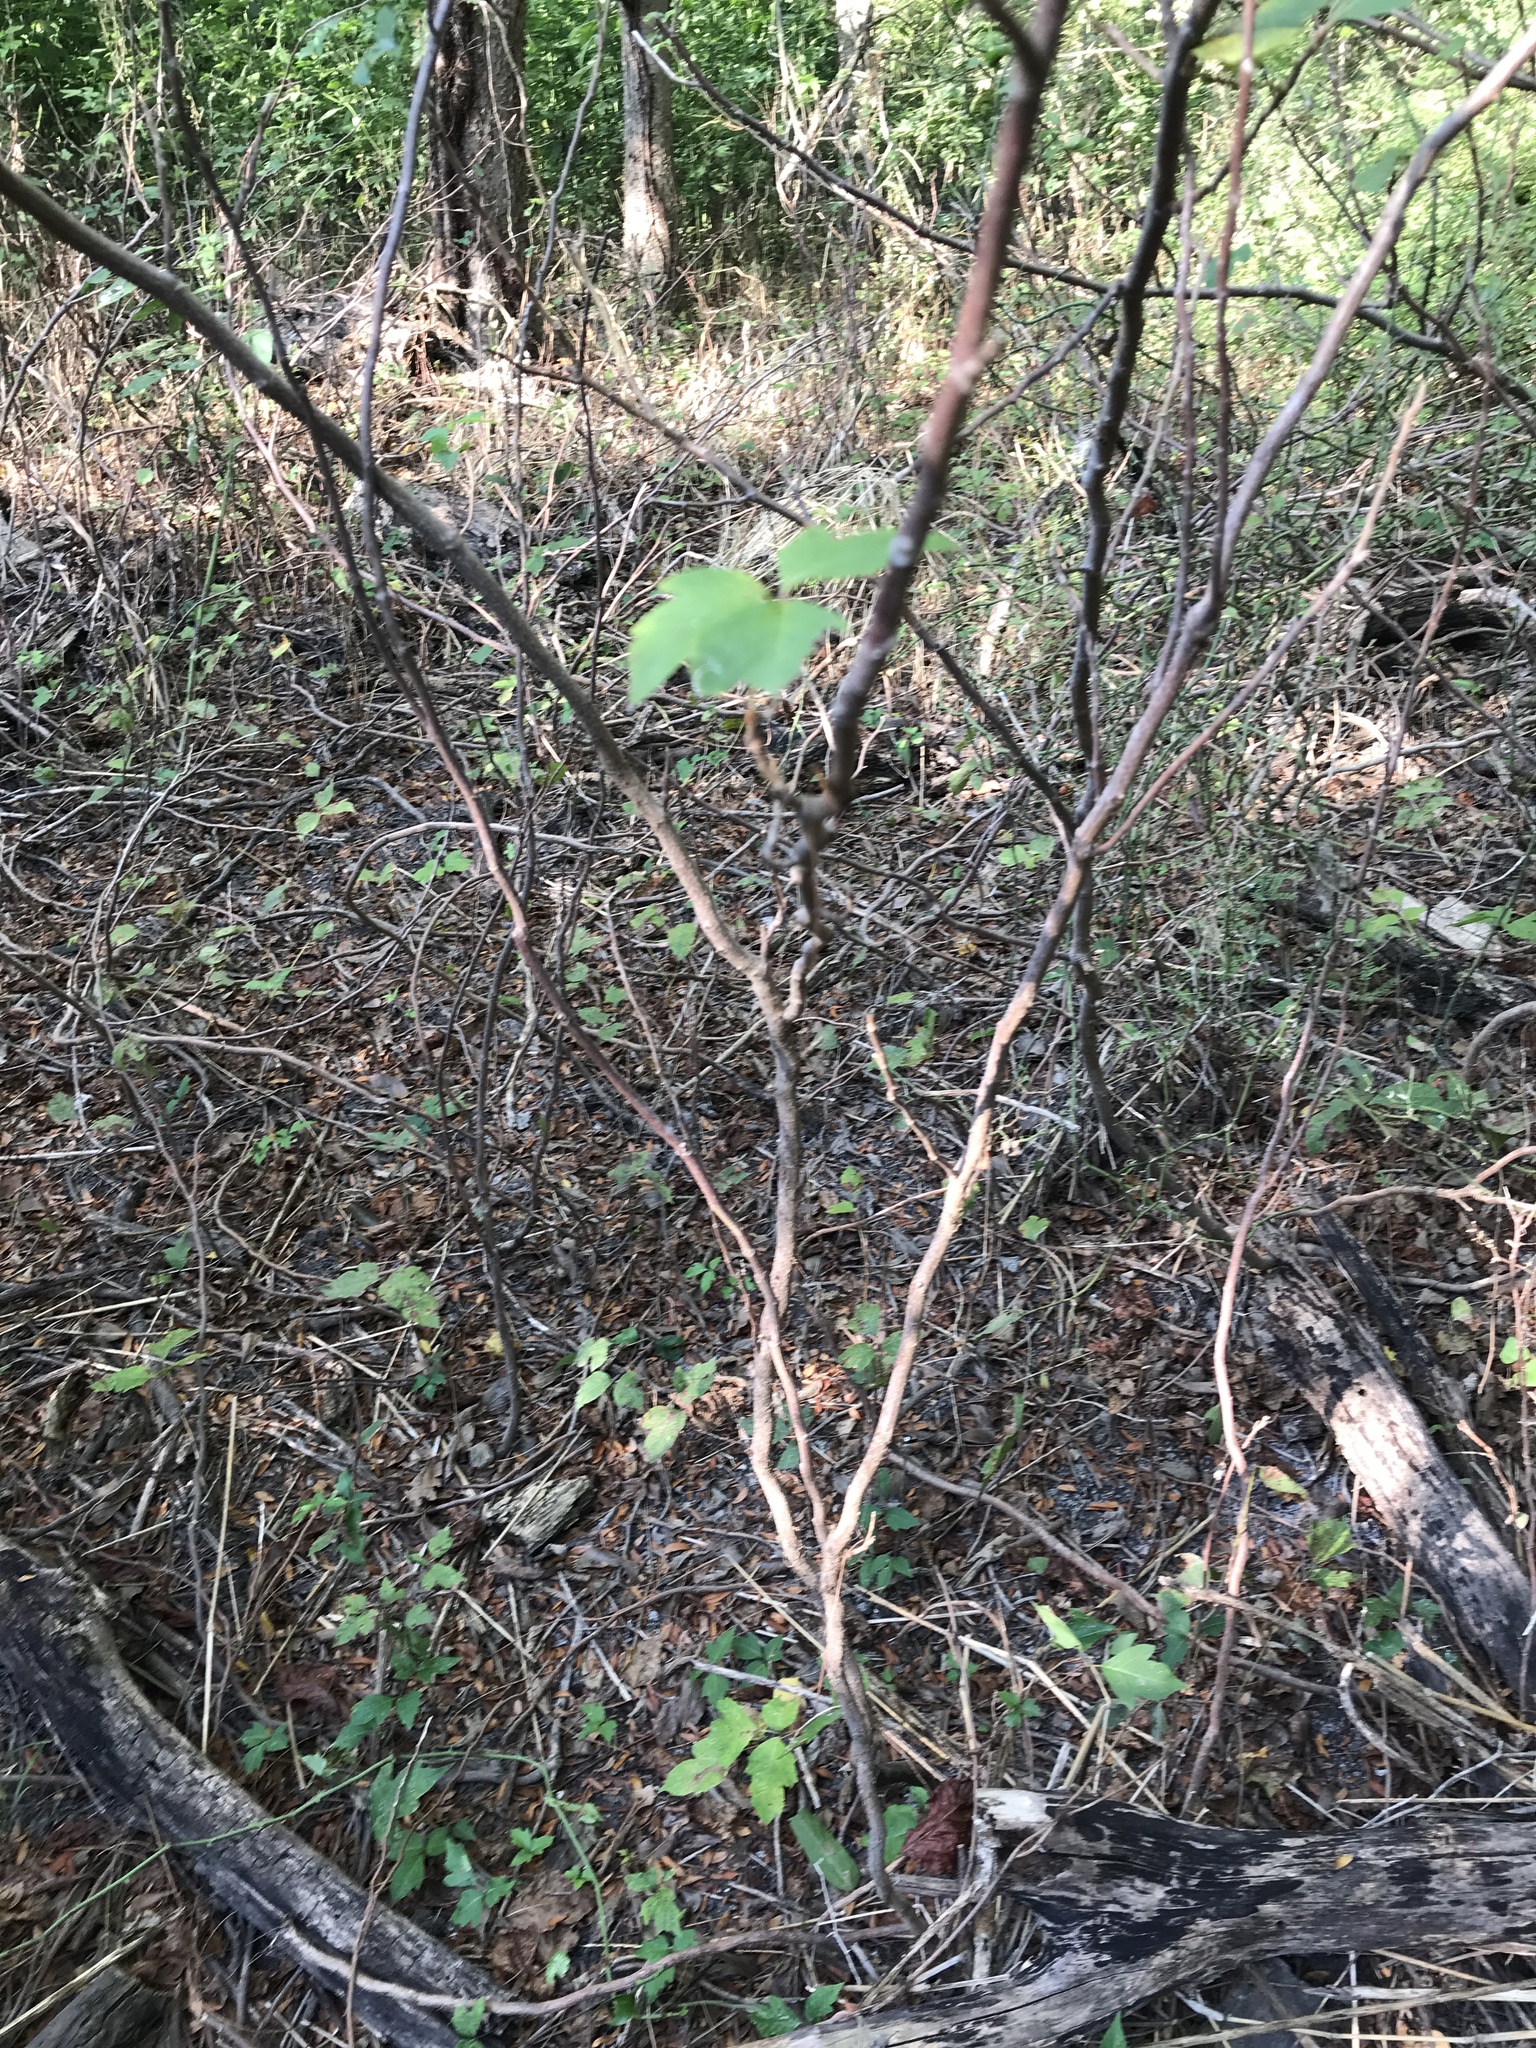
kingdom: Plantae
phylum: Tracheophyta
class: Magnoliopsida
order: Sapindales
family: Anacardiaceae
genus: Toxicodendron
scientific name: Toxicodendron radicans
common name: Poison ivy
